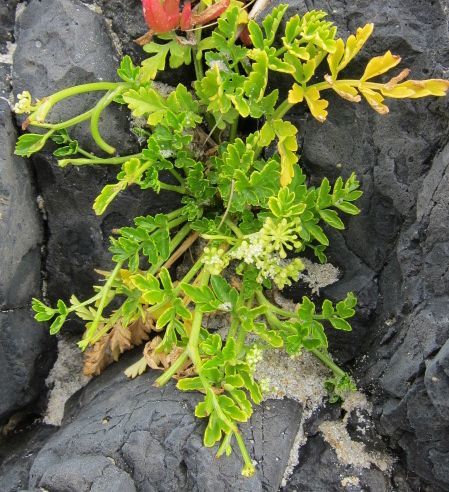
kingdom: Plantae
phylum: Tracheophyta
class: Magnoliopsida
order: Apiales
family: Apiaceae
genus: Apium
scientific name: Apium prostratum
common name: Prostrate marshwort
